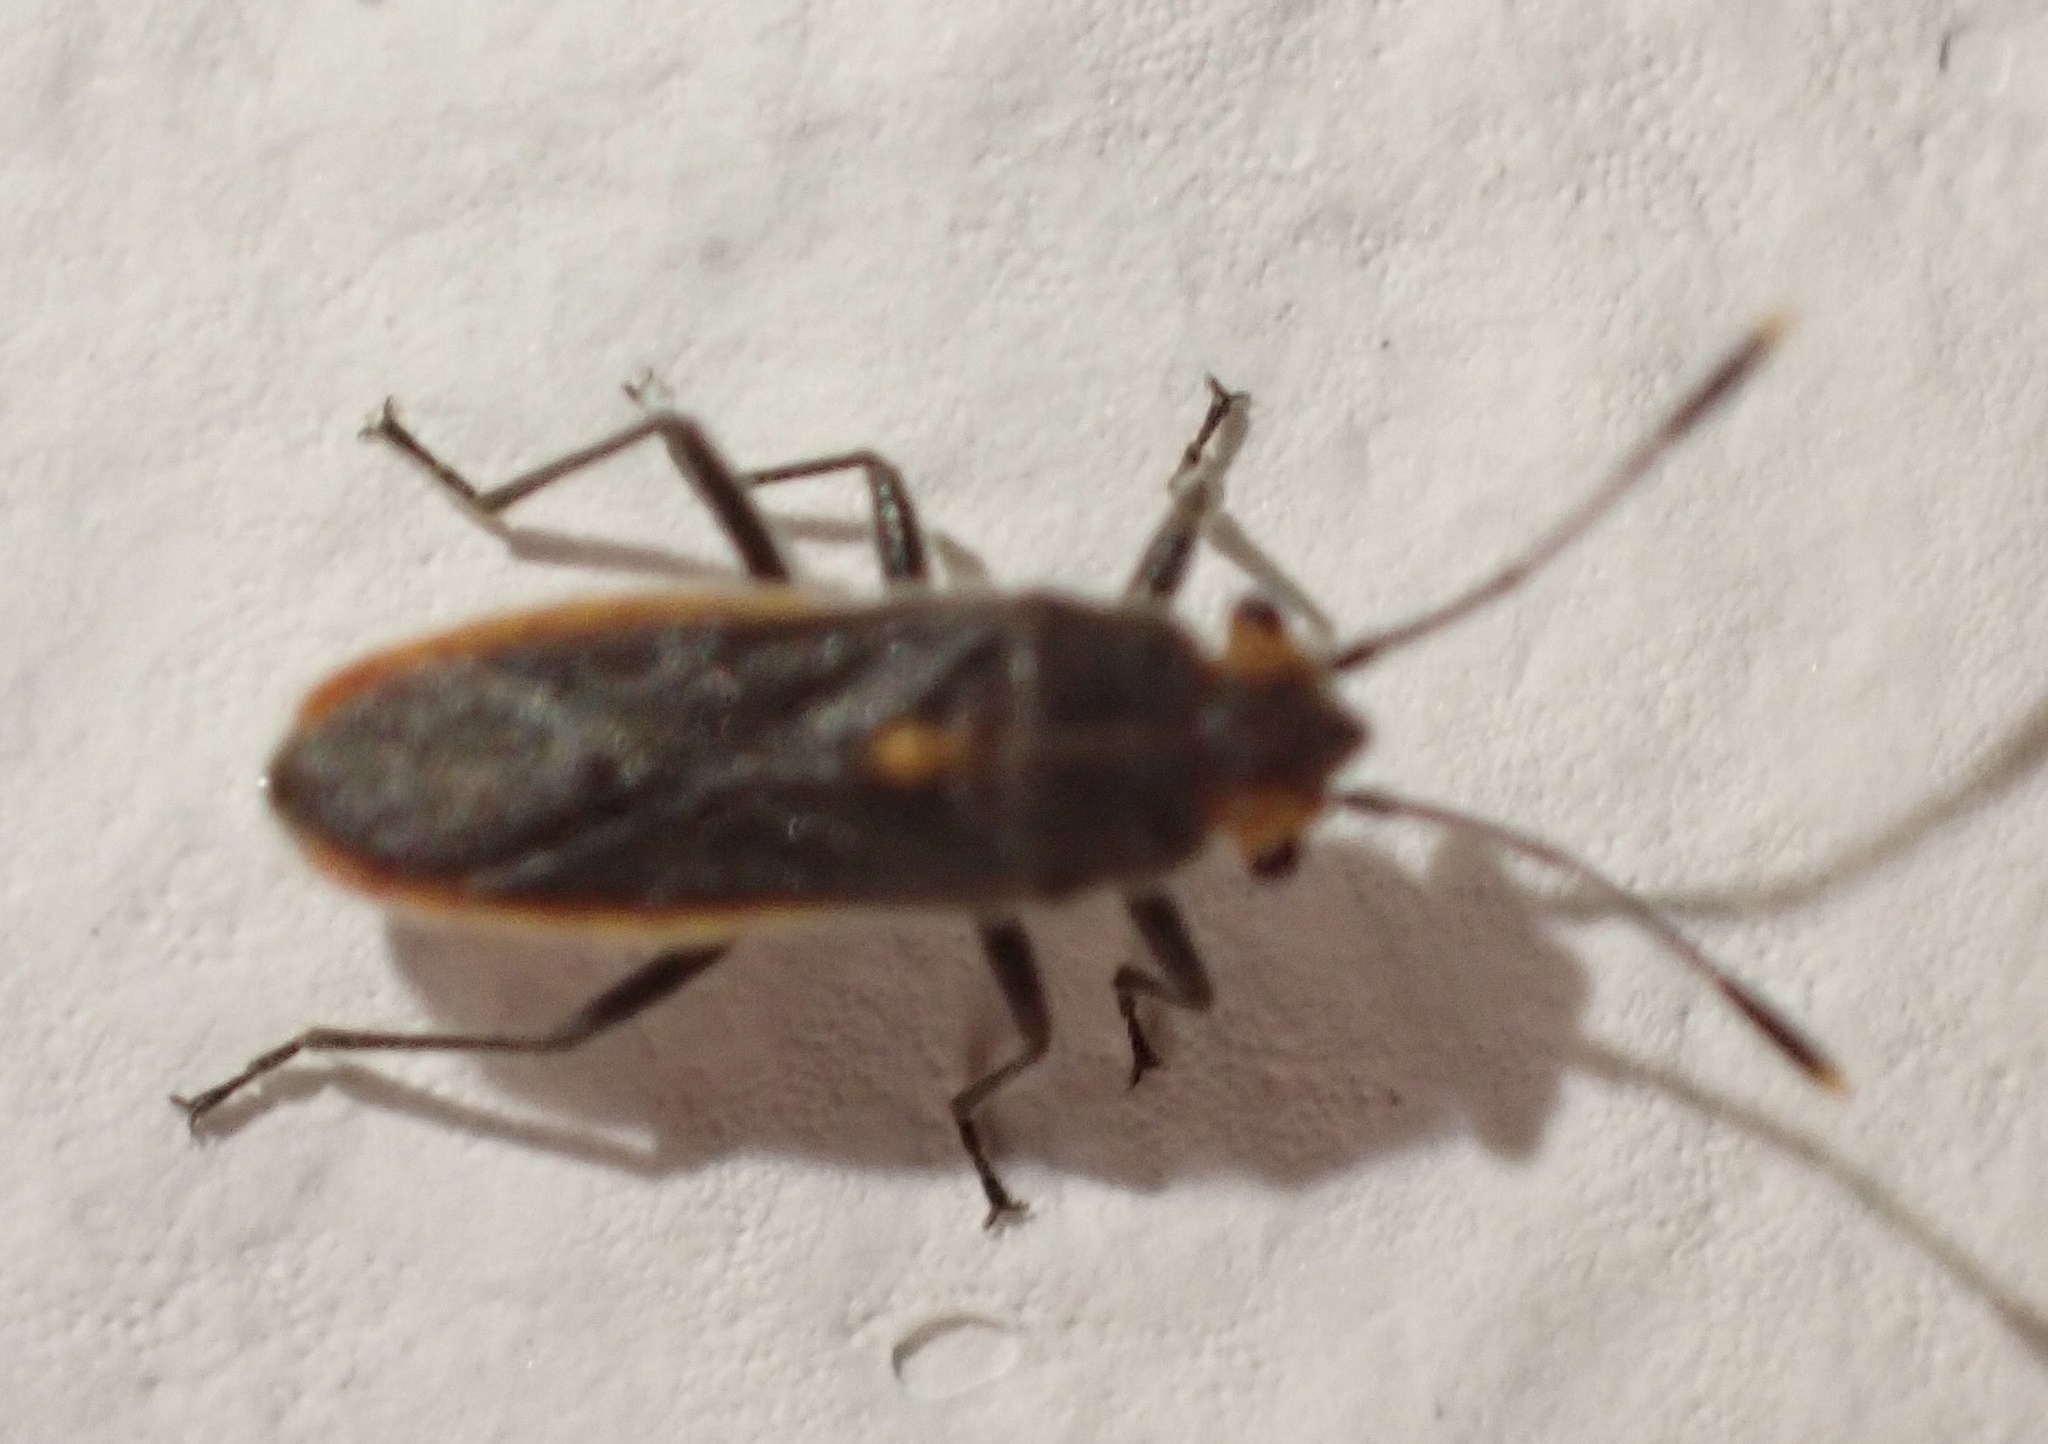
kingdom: Animalia
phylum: Arthropoda
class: Insecta
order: Hemiptera
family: Lygaeidae
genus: Afraethalotus
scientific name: Afraethalotus canescens
